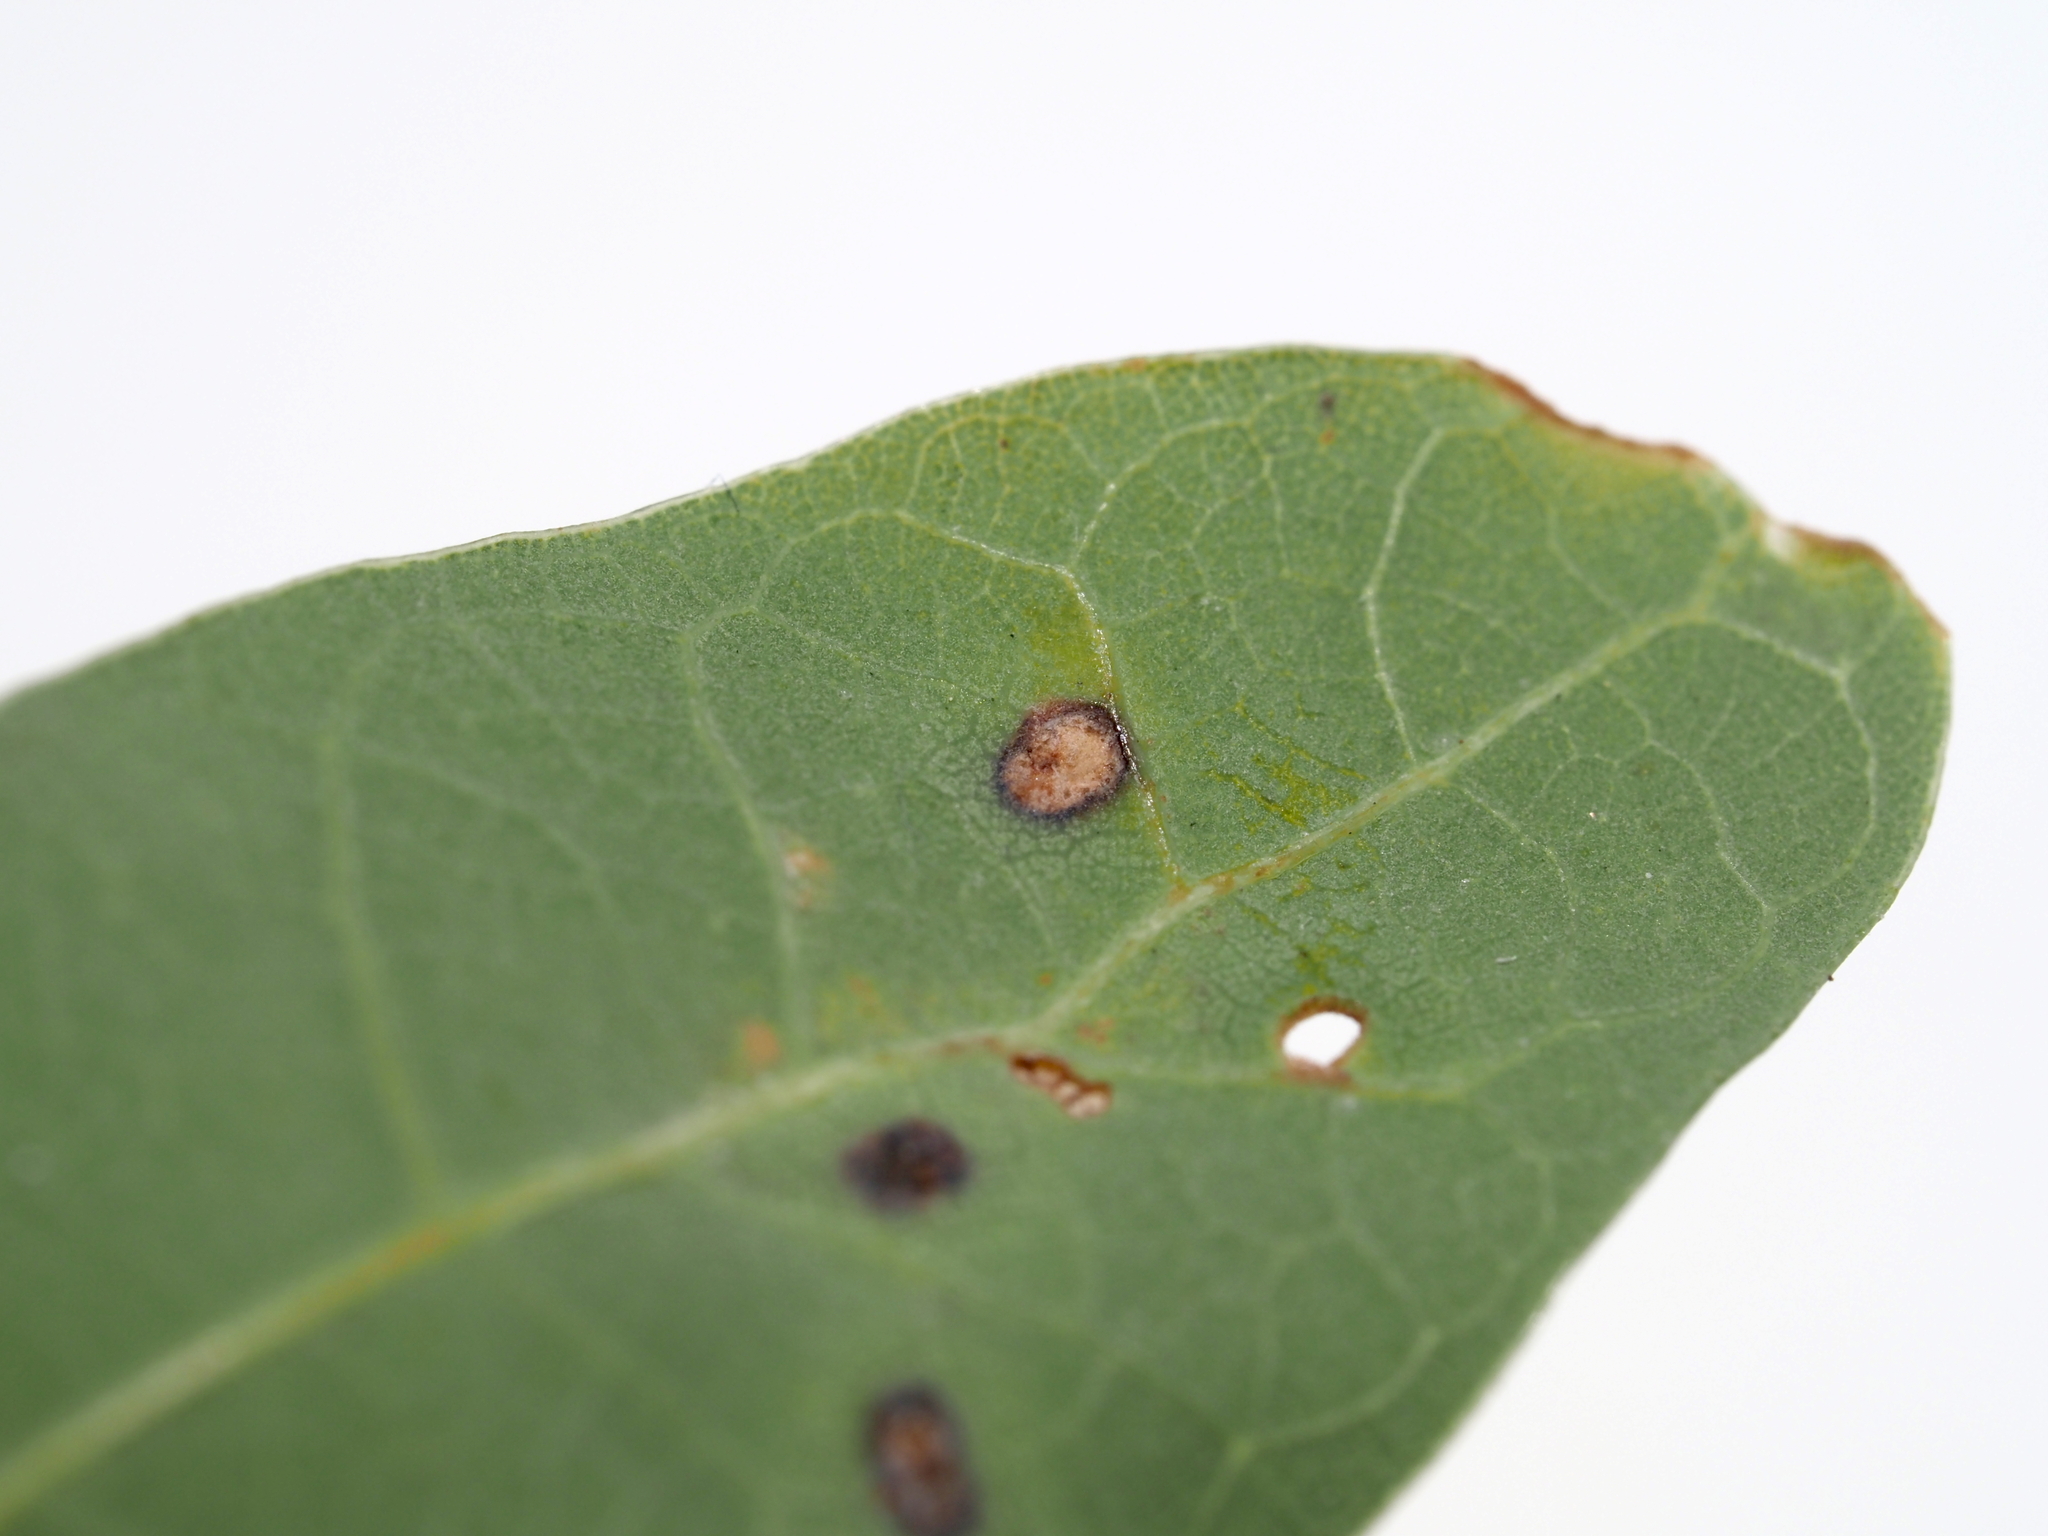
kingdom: Animalia
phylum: Arthropoda
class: Insecta
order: Hymenoptera
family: Cynipidae
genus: Neuroterus
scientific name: Neuroterus quercusverrucarum
